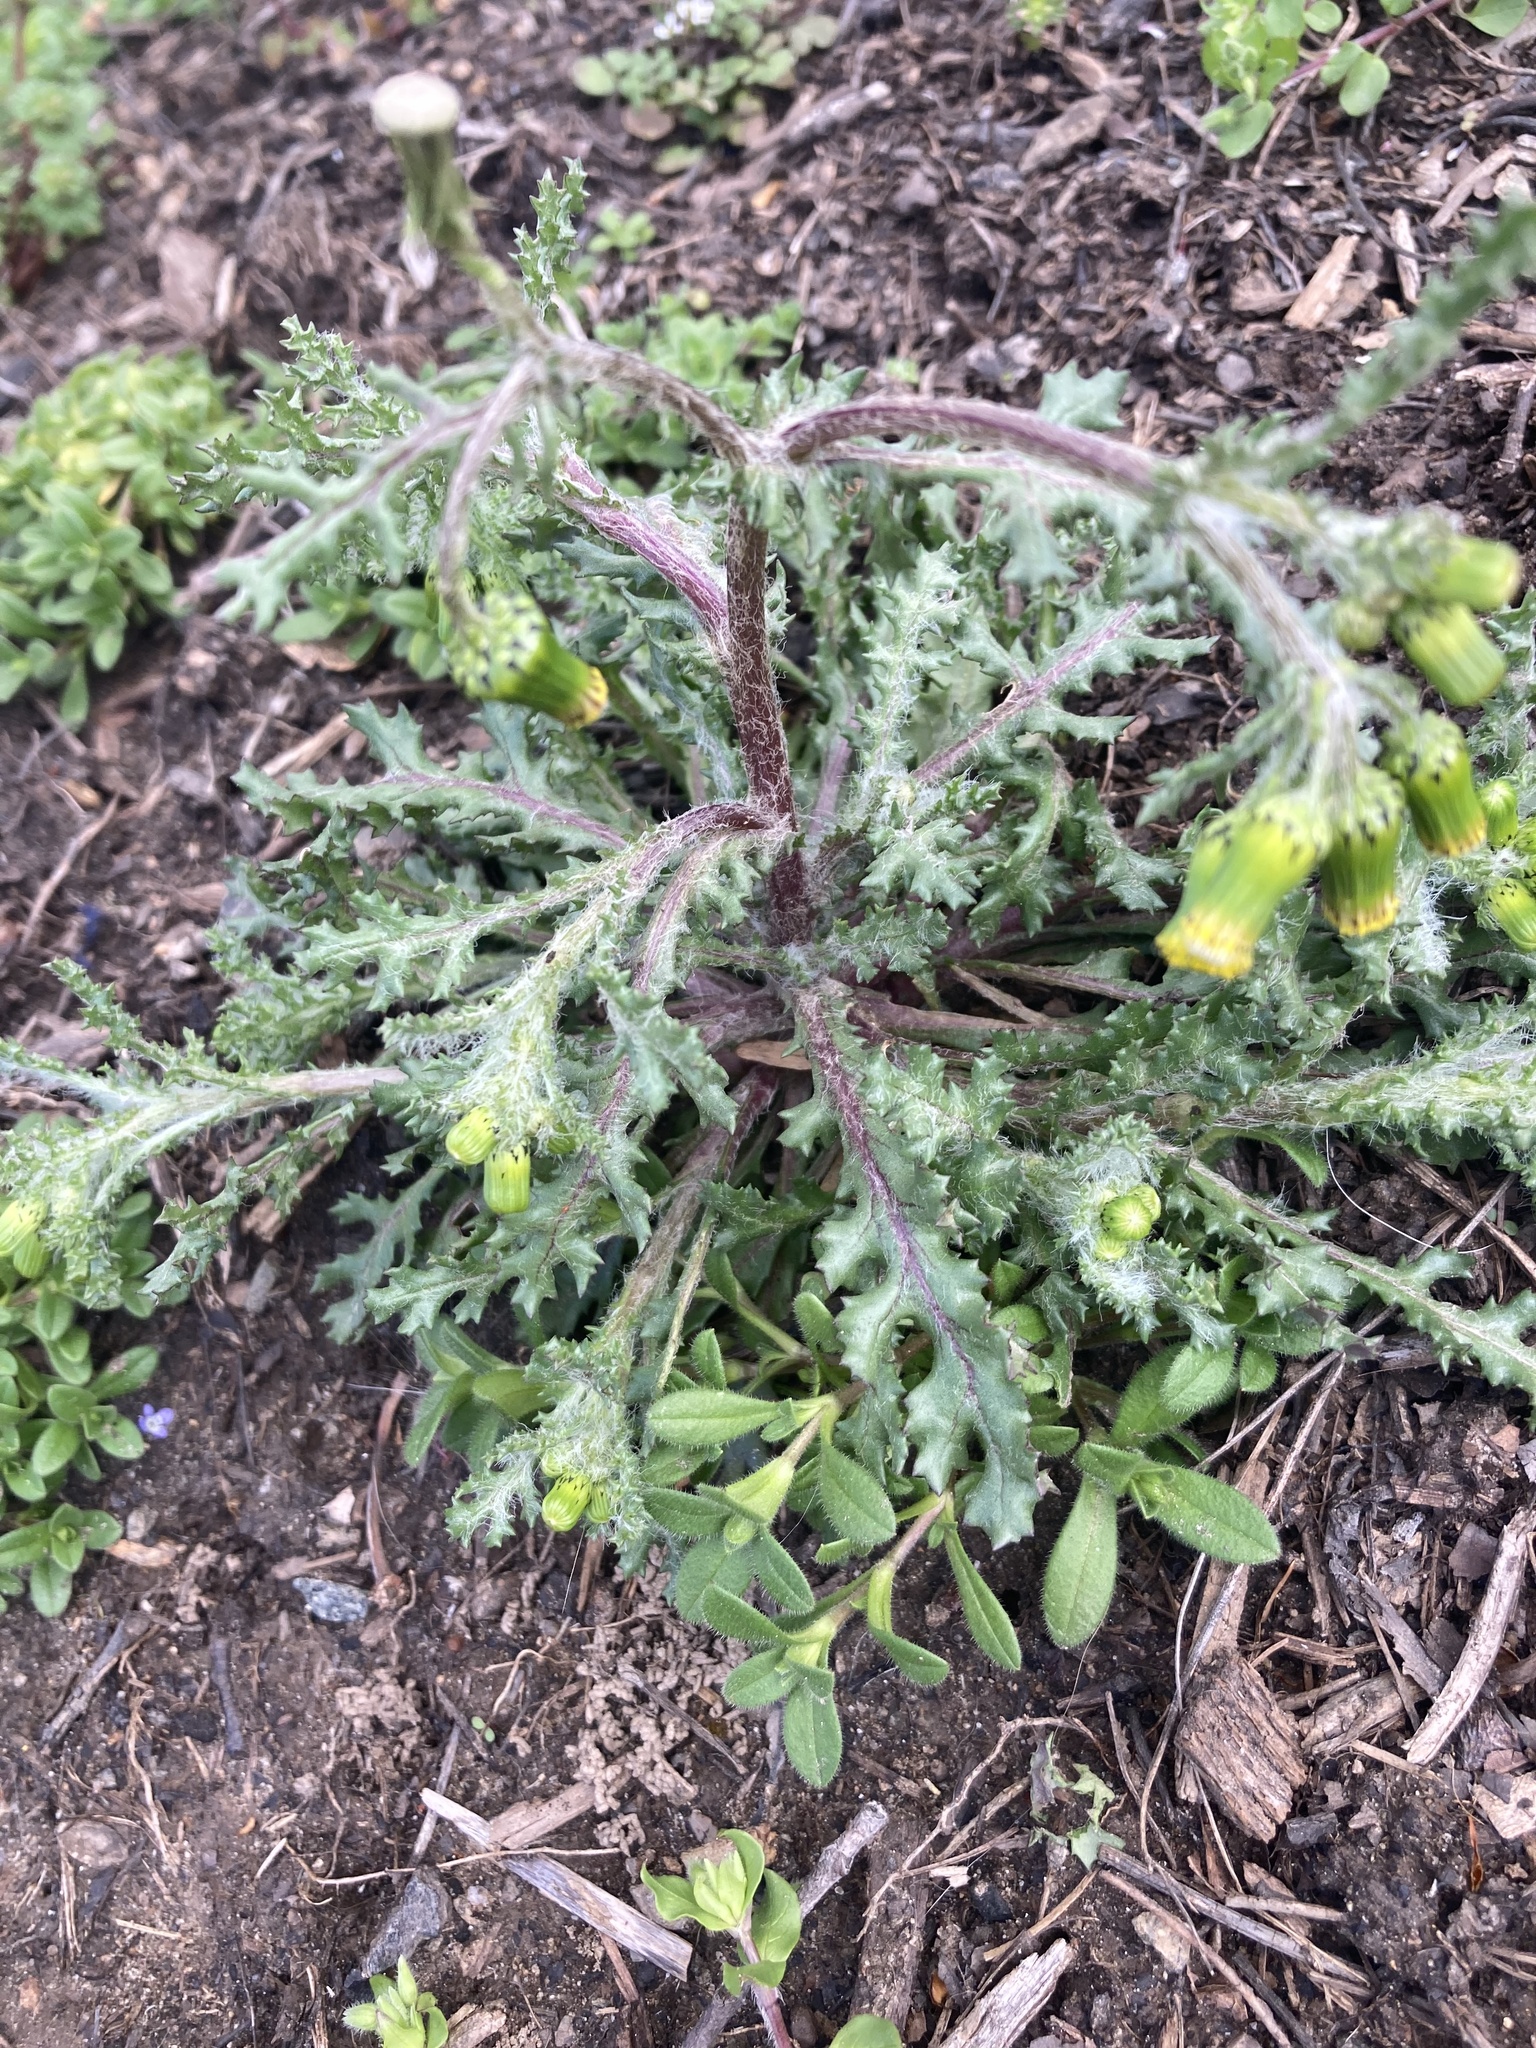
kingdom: Plantae
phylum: Tracheophyta
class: Magnoliopsida
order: Asterales
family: Asteraceae
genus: Senecio
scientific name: Senecio vulgaris
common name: Old-man-in-the-spring
